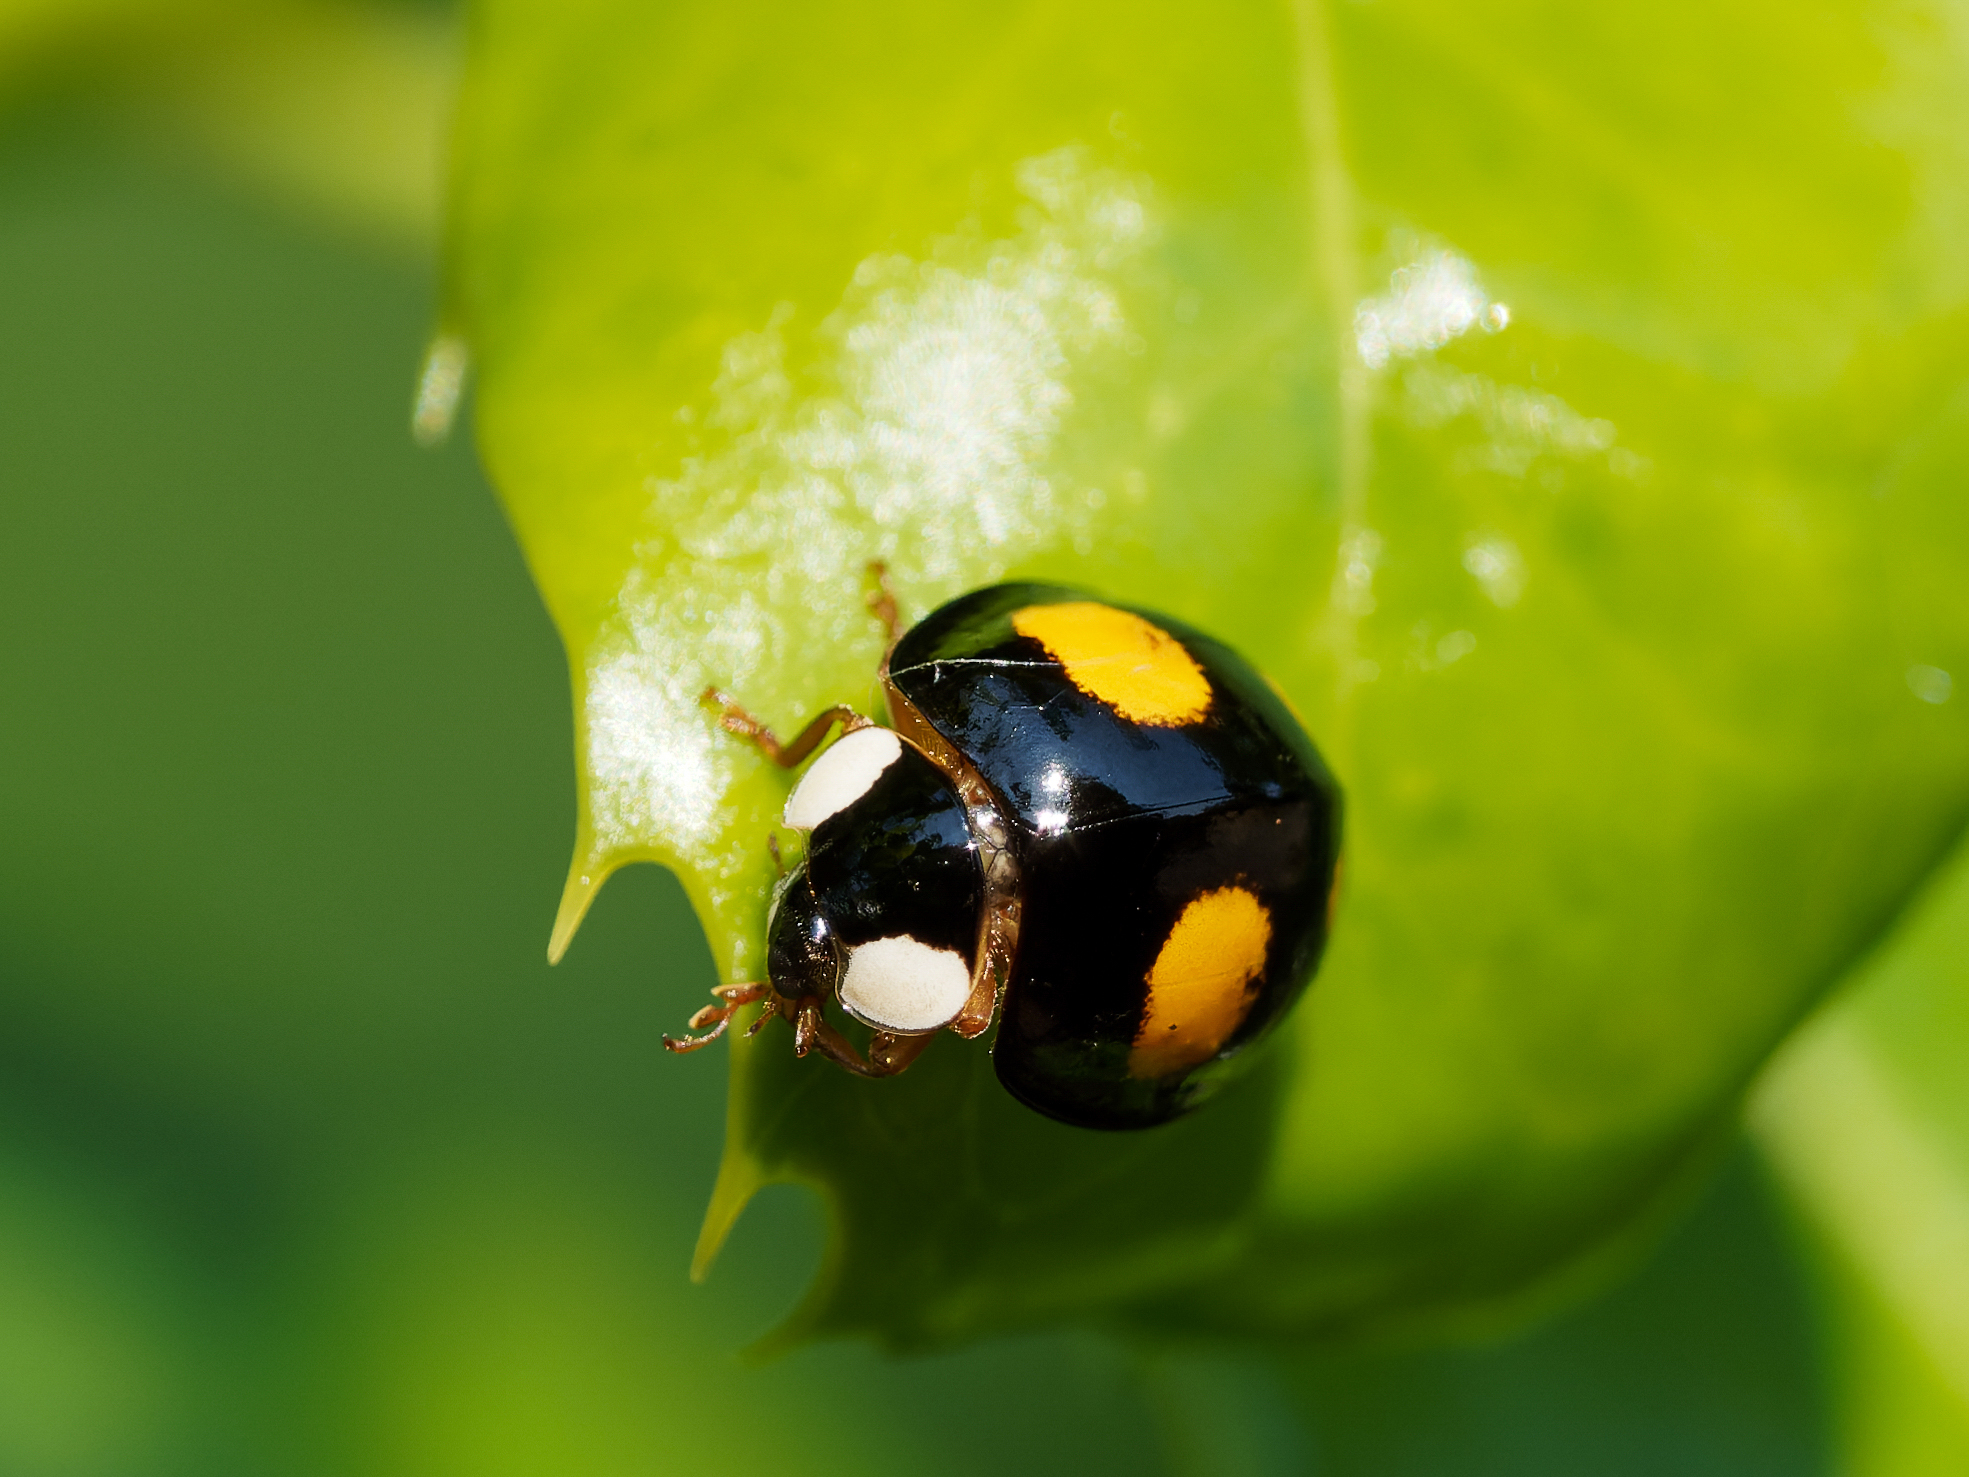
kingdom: Animalia
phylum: Arthropoda
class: Insecta
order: Coleoptera
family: Coccinellidae
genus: Harmonia
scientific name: Harmonia axyridis
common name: Harlequin ladybird
